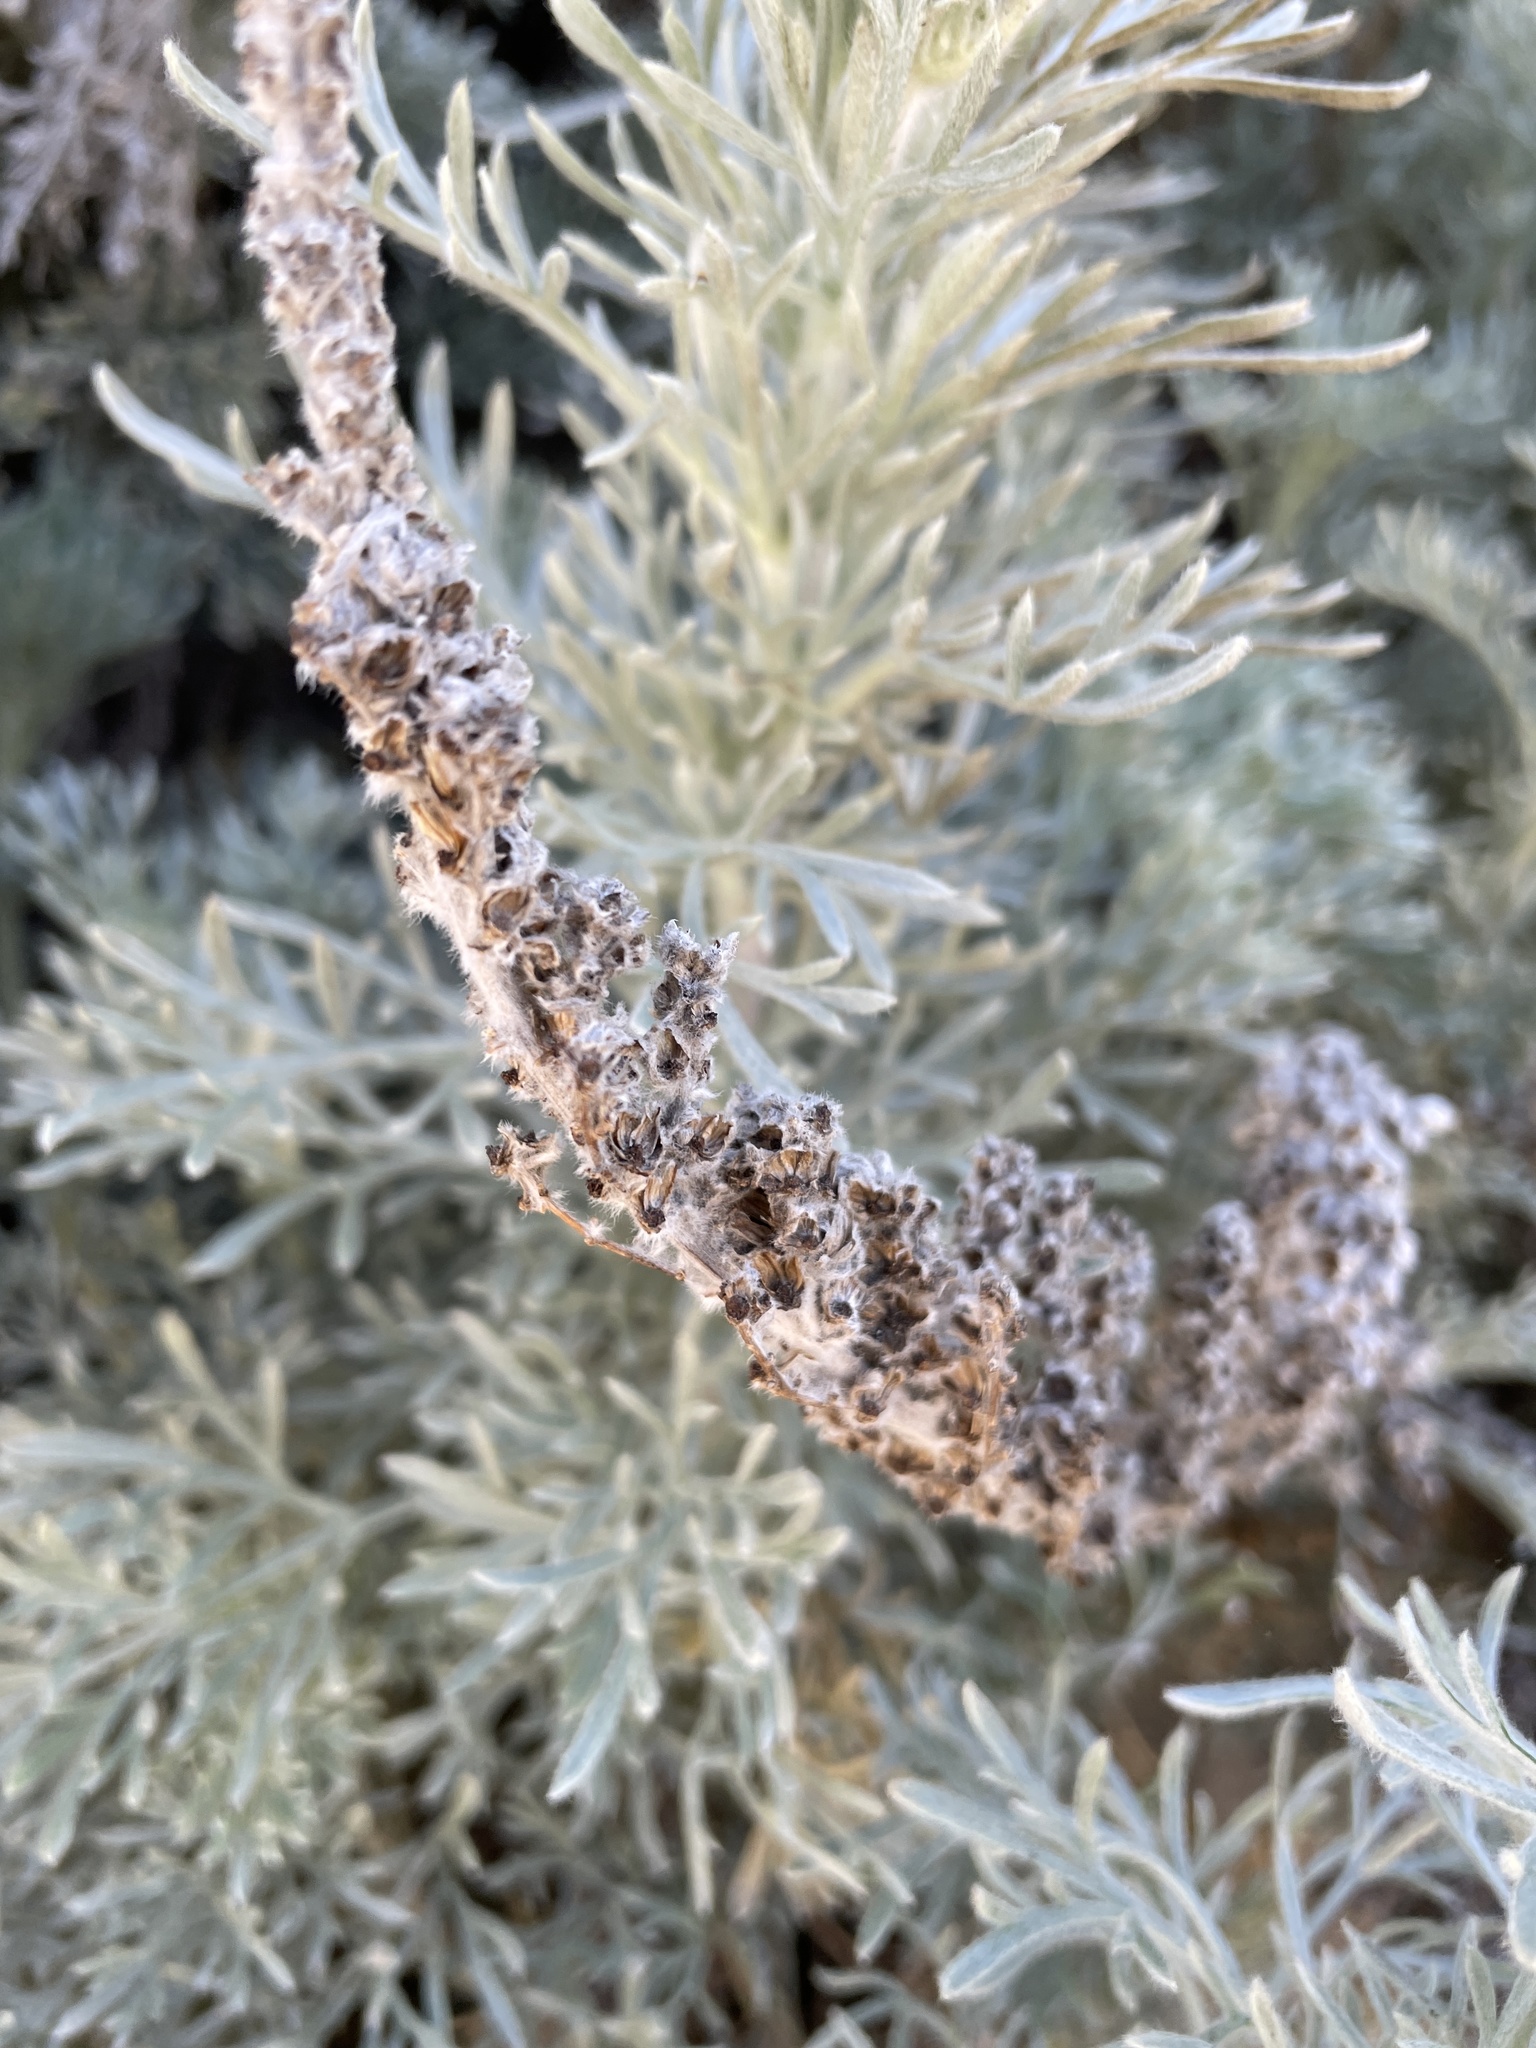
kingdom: Plantae
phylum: Tracheophyta
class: Magnoliopsida
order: Asterales
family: Asteraceae
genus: Artemisia
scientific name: Artemisia pycnocephala
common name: Coastal sagewort
